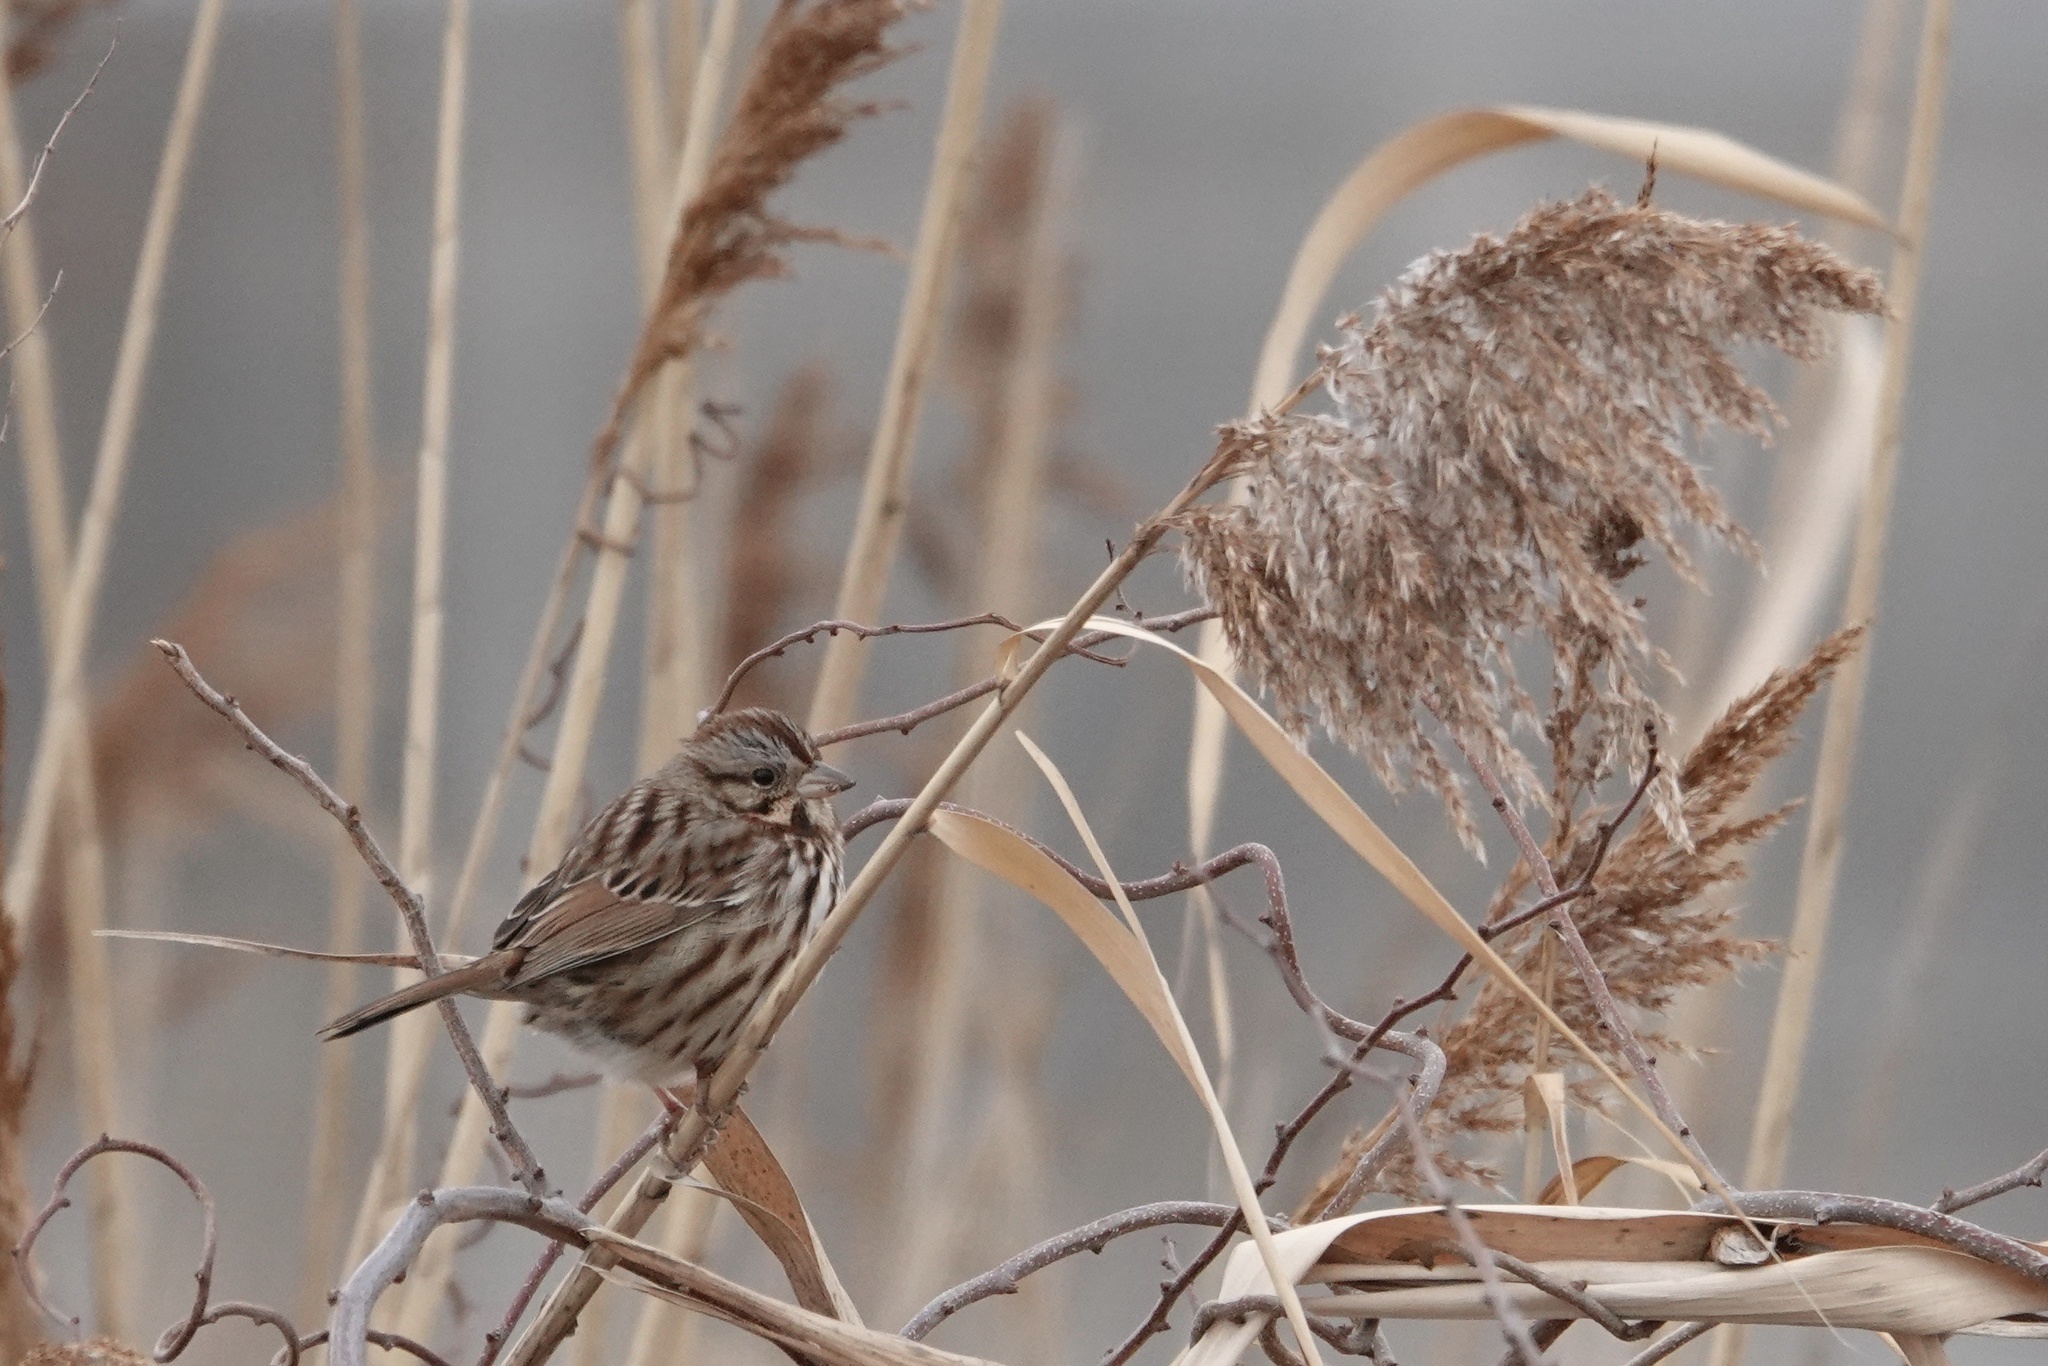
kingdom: Animalia
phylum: Chordata
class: Aves
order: Passeriformes
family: Passerellidae
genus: Melospiza
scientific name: Melospiza melodia
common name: Song sparrow
